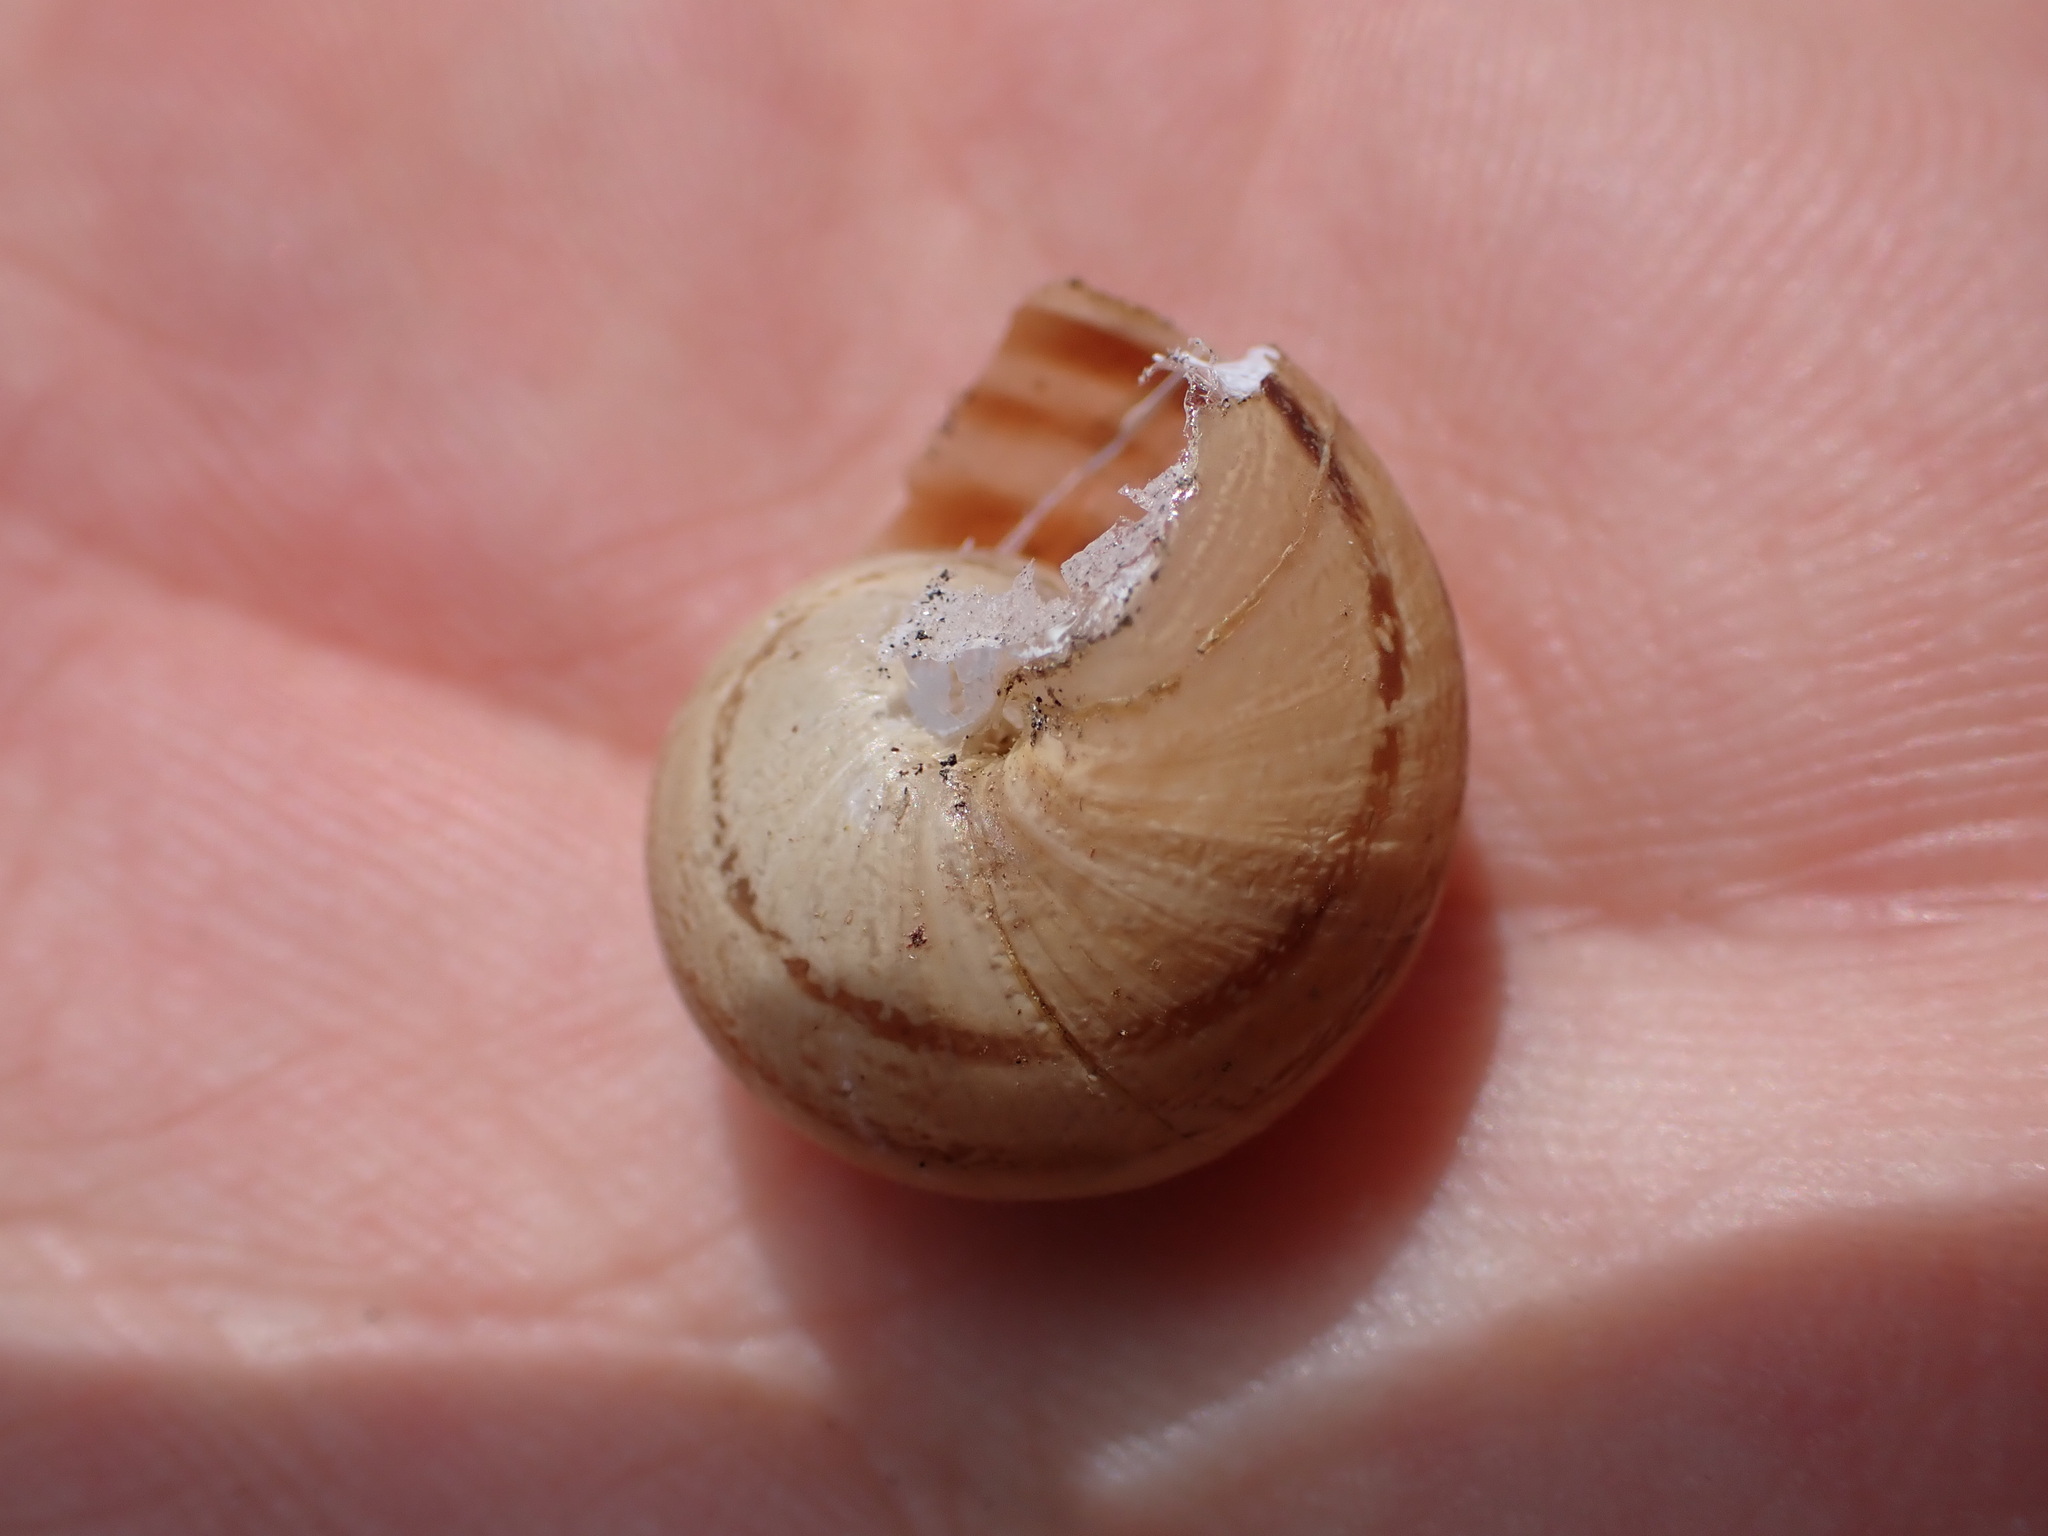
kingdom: Animalia
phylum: Mollusca
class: Gastropoda
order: Stylommatophora
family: Helicidae
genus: Eobania
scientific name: Eobania vermiculata
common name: Chocolateband snail
